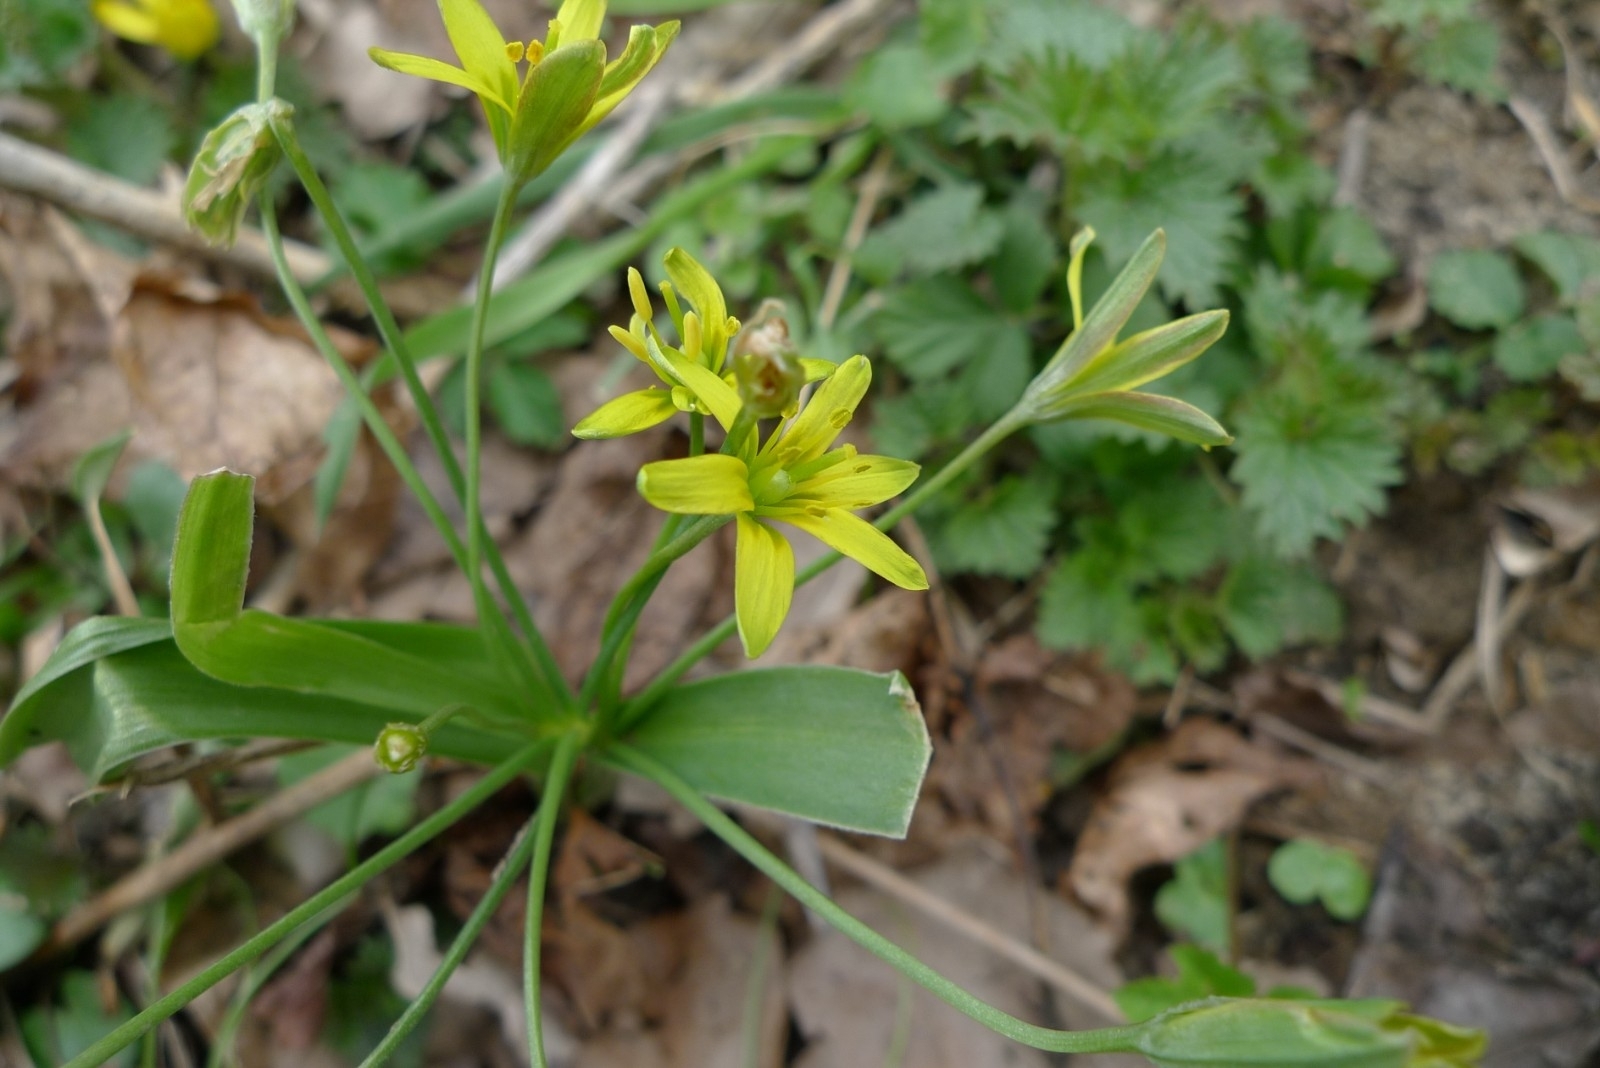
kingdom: Plantae
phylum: Tracheophyta
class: Liliopsida
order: Liliales
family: Liliaceae
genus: Gagea
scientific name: Gagea lutea
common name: Yellow star-of-bethlehem
